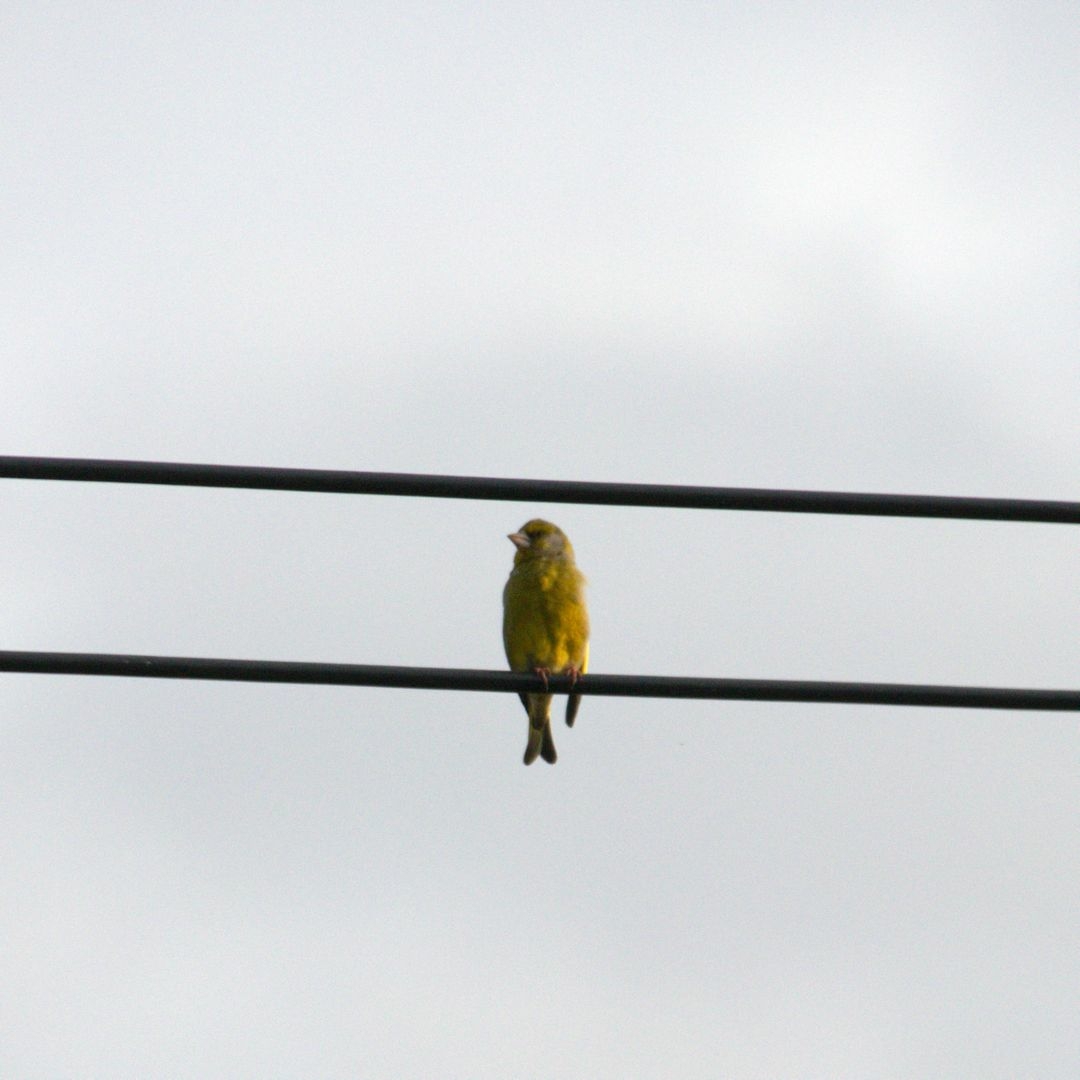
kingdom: Plantae
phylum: Tracheophyta
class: Liliopsida
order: Poales
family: Poaceae
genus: Chloris
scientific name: Chloris chloris
